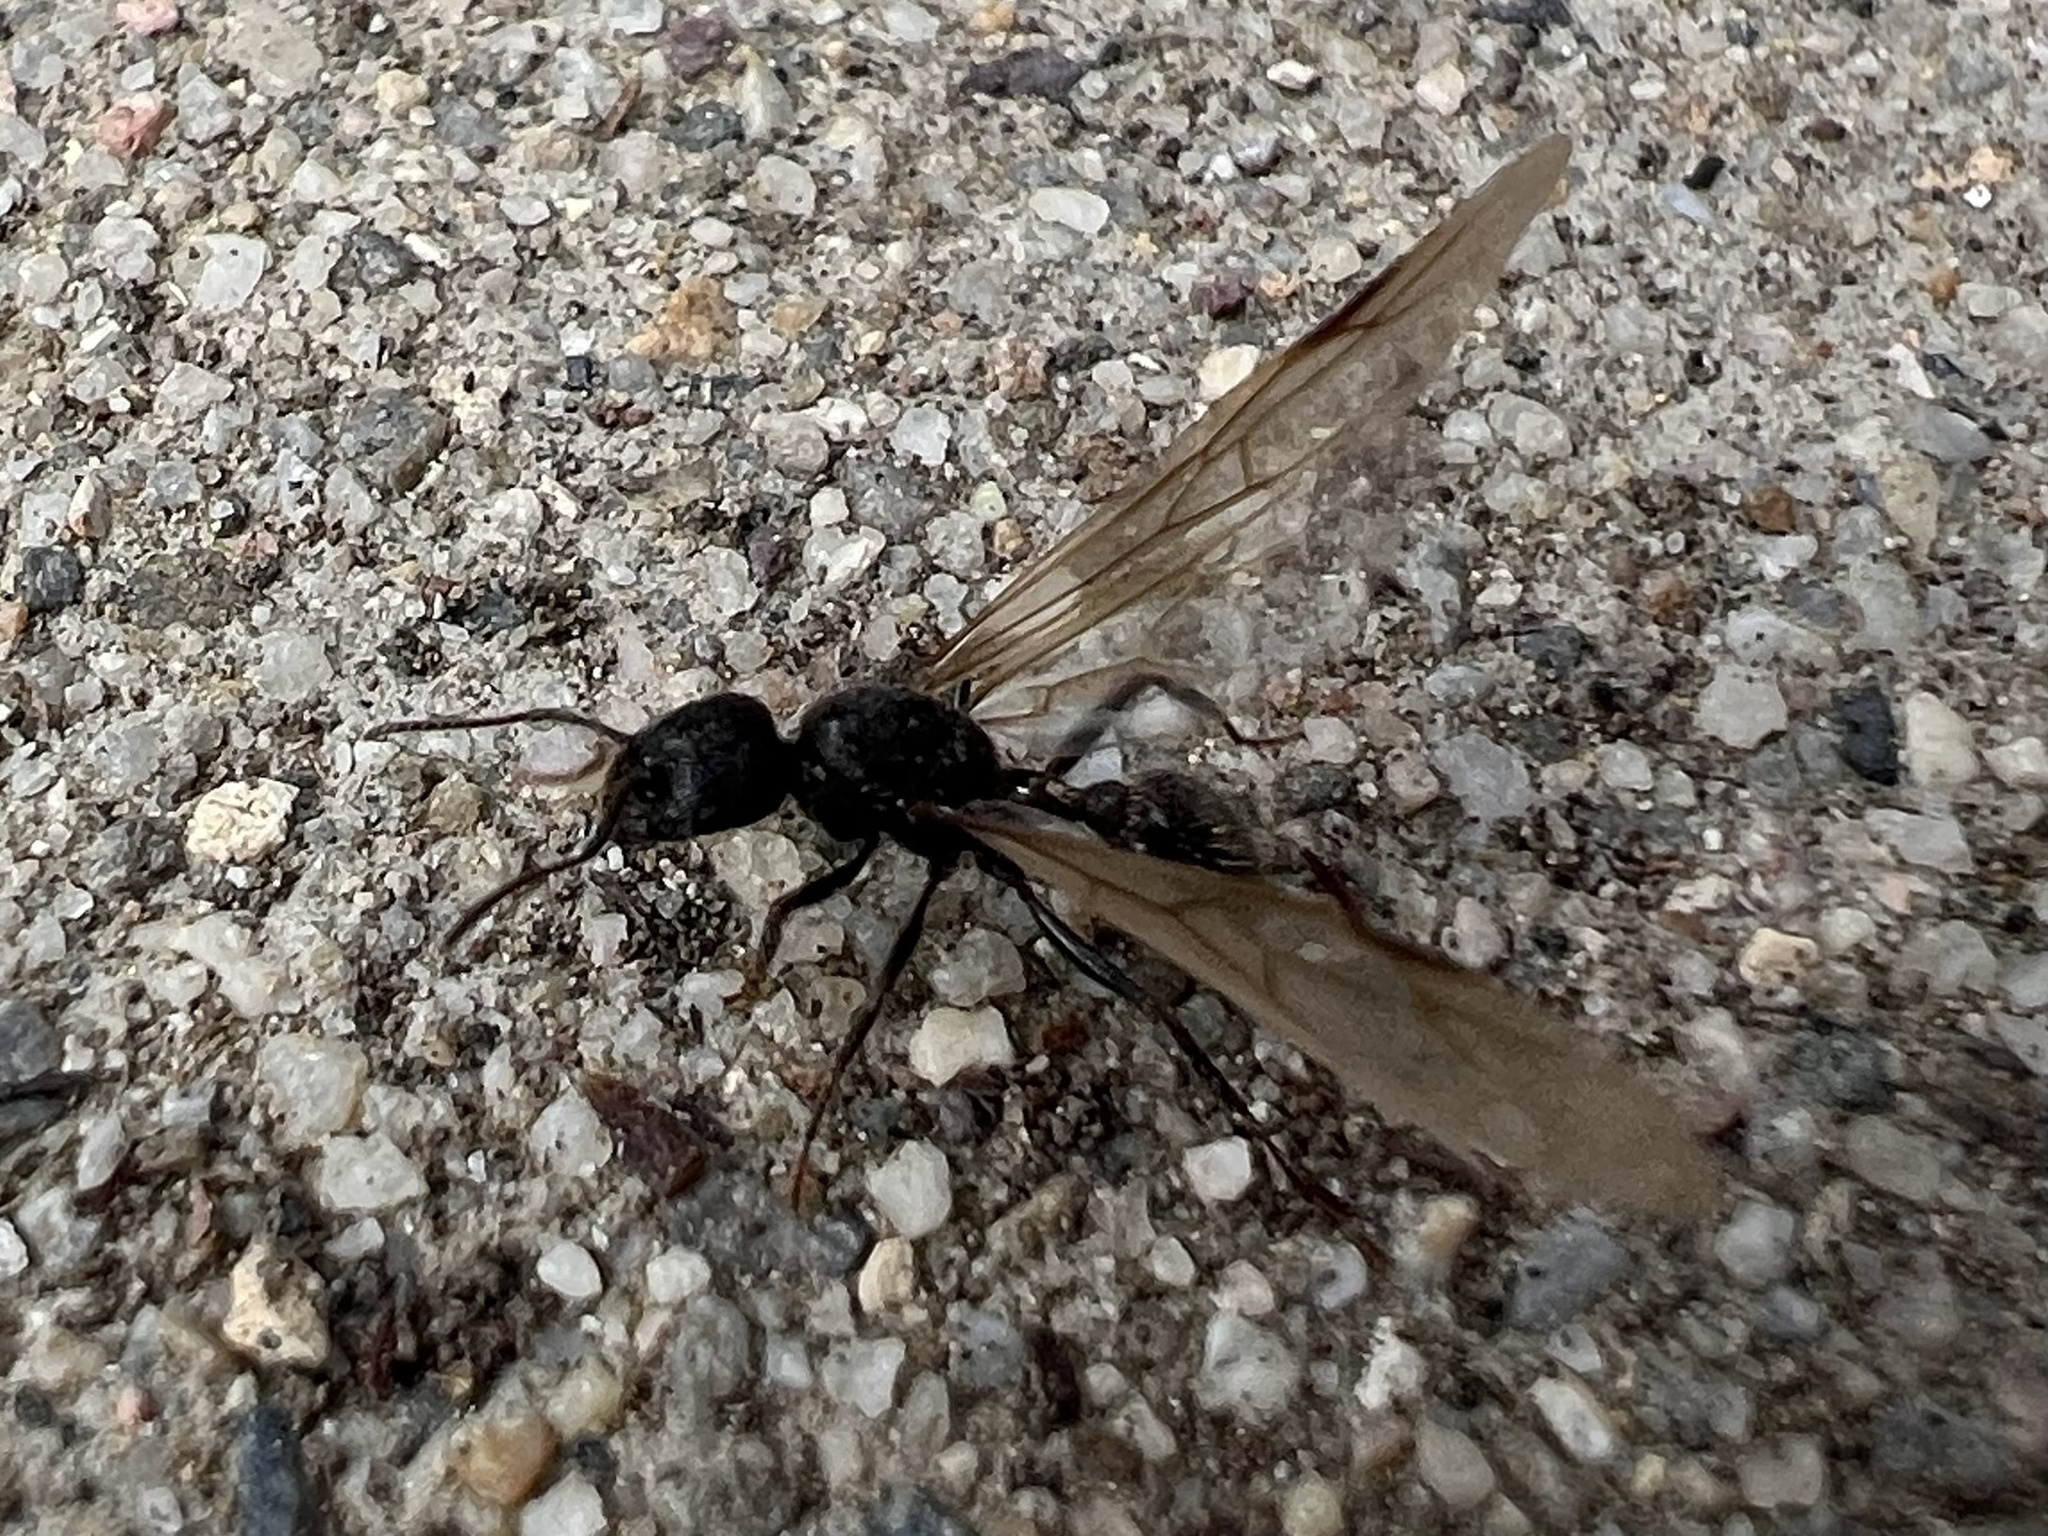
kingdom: Animalia
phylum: Arthropoda
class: Insecta
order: Hymenoptera
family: Formicidae
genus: Veromessor
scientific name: Veromessor andrei
